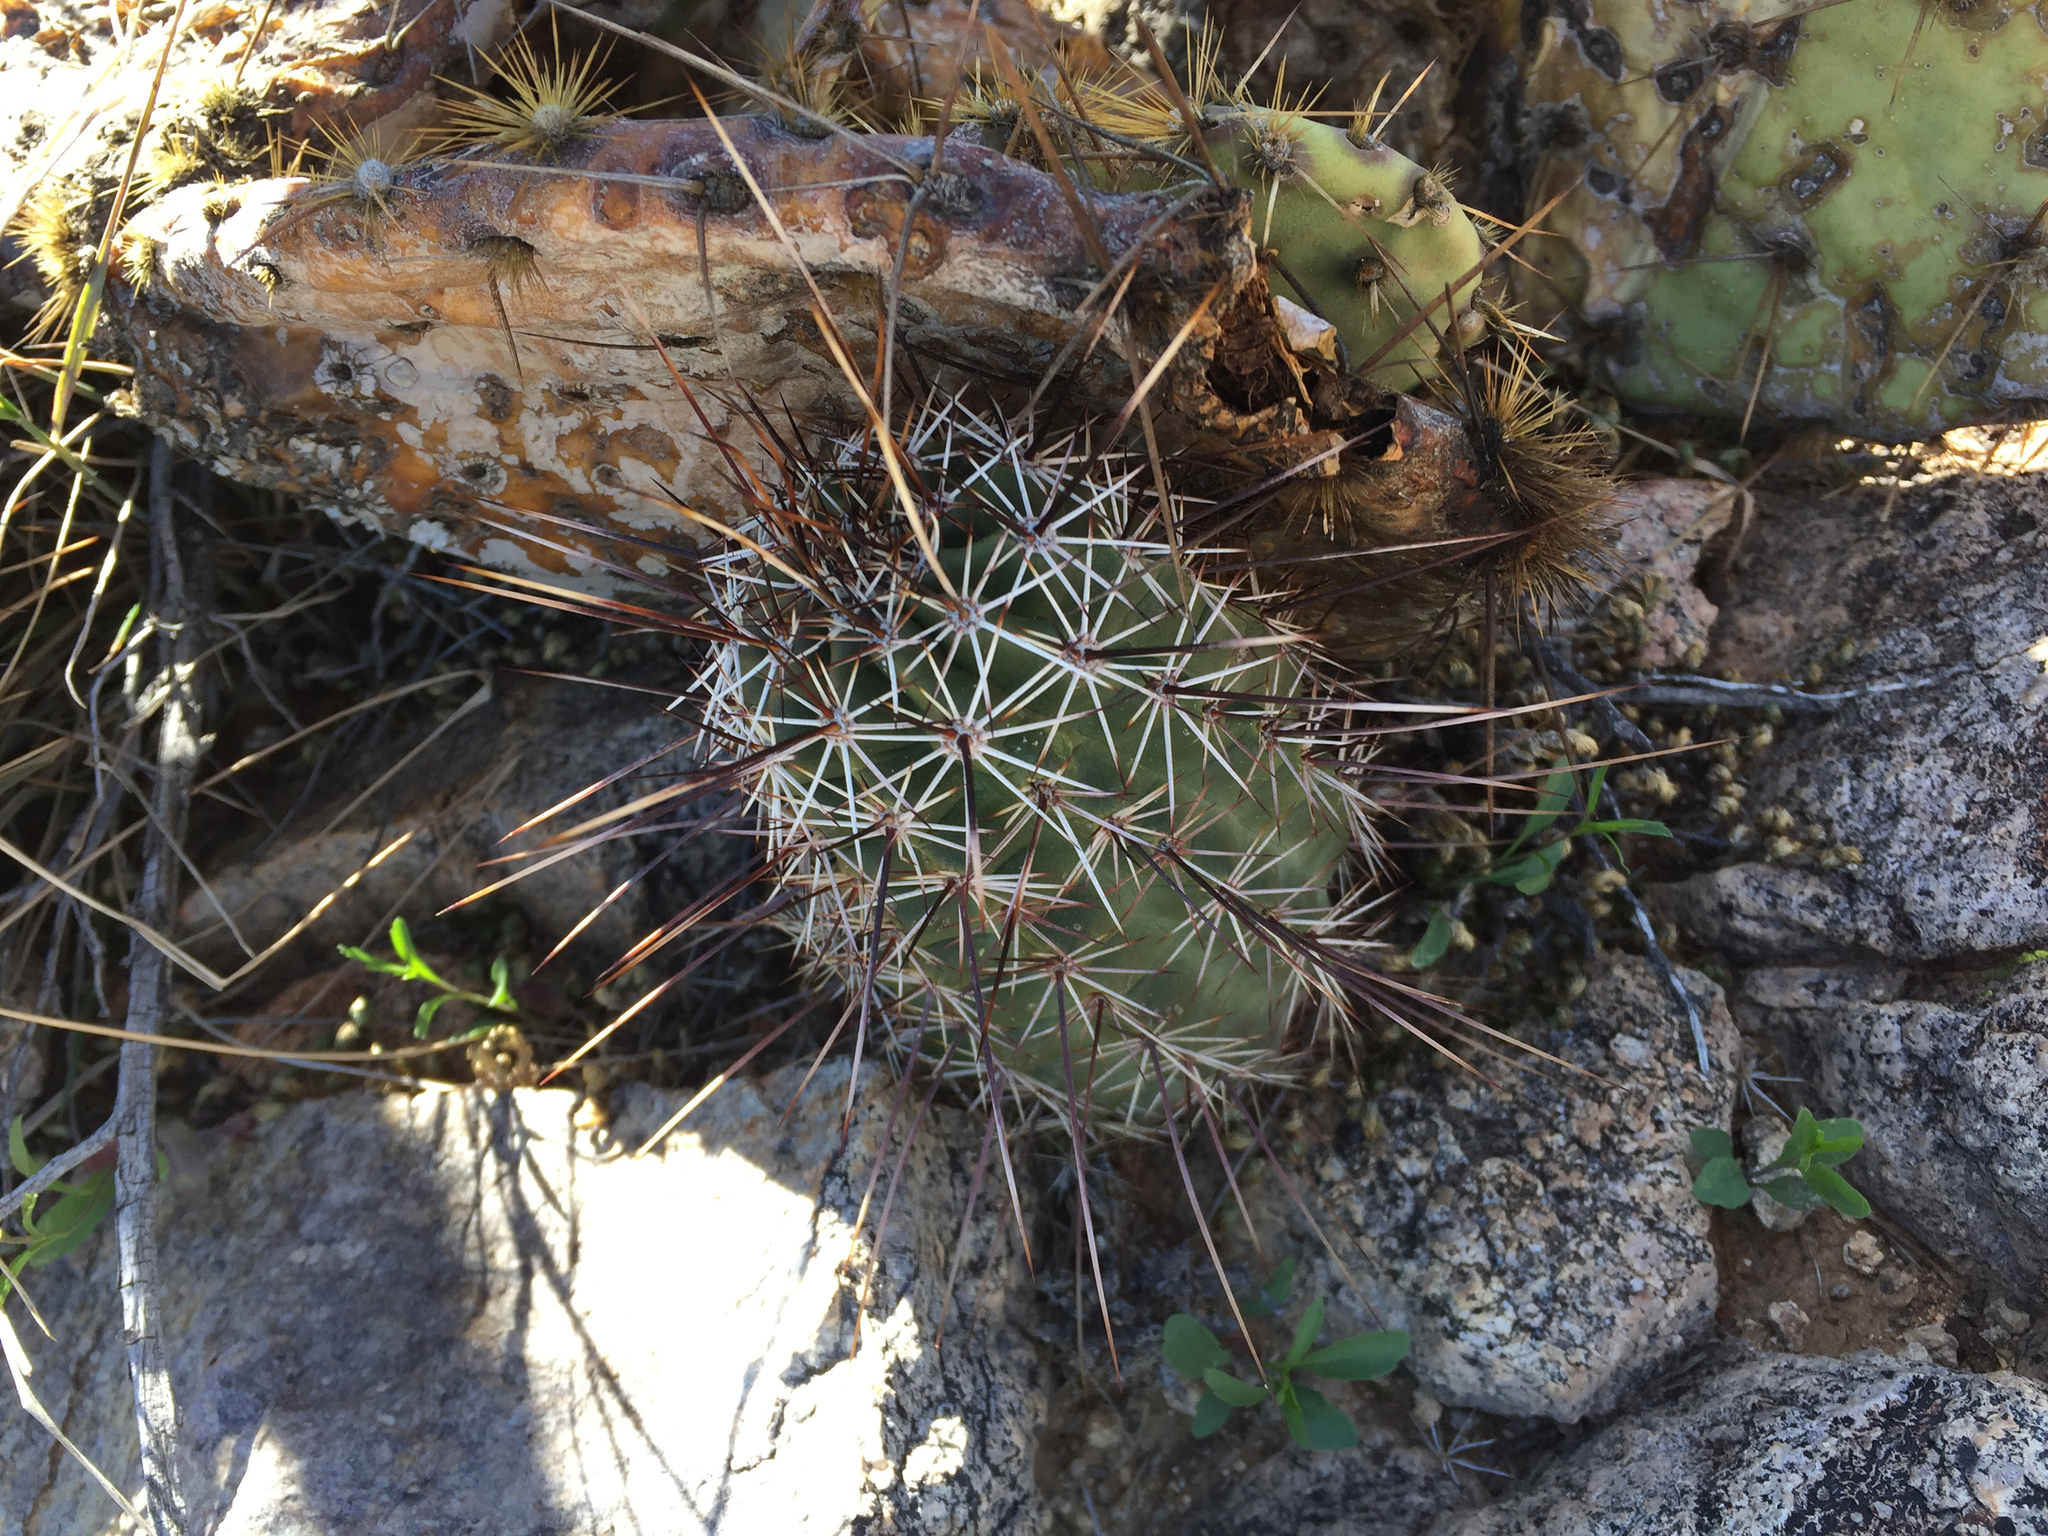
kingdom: Plantae
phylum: Tracheophyta
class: Magnoliopsida
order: Caryophyllales
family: Cactaceae
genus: Echinocereus
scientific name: Echinocereus fasciculatus
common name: Bundle hedgehog
